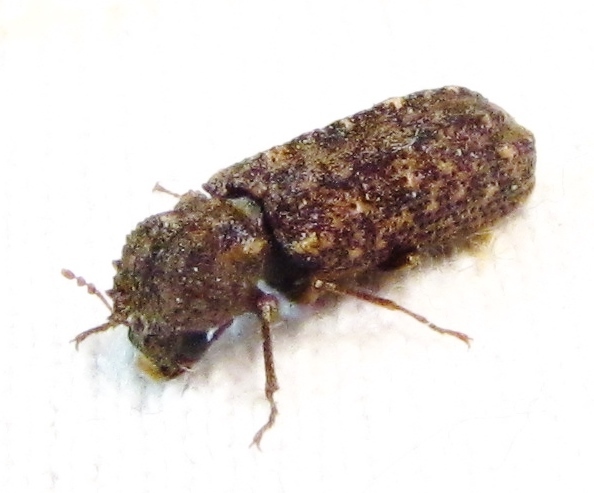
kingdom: Animalia
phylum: Arthropoda
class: Insecta
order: Coleoptera
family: Bostrichidae
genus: Lichenophanes
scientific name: Lichenophanes bicornis
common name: Two-horned powder-post beetle
